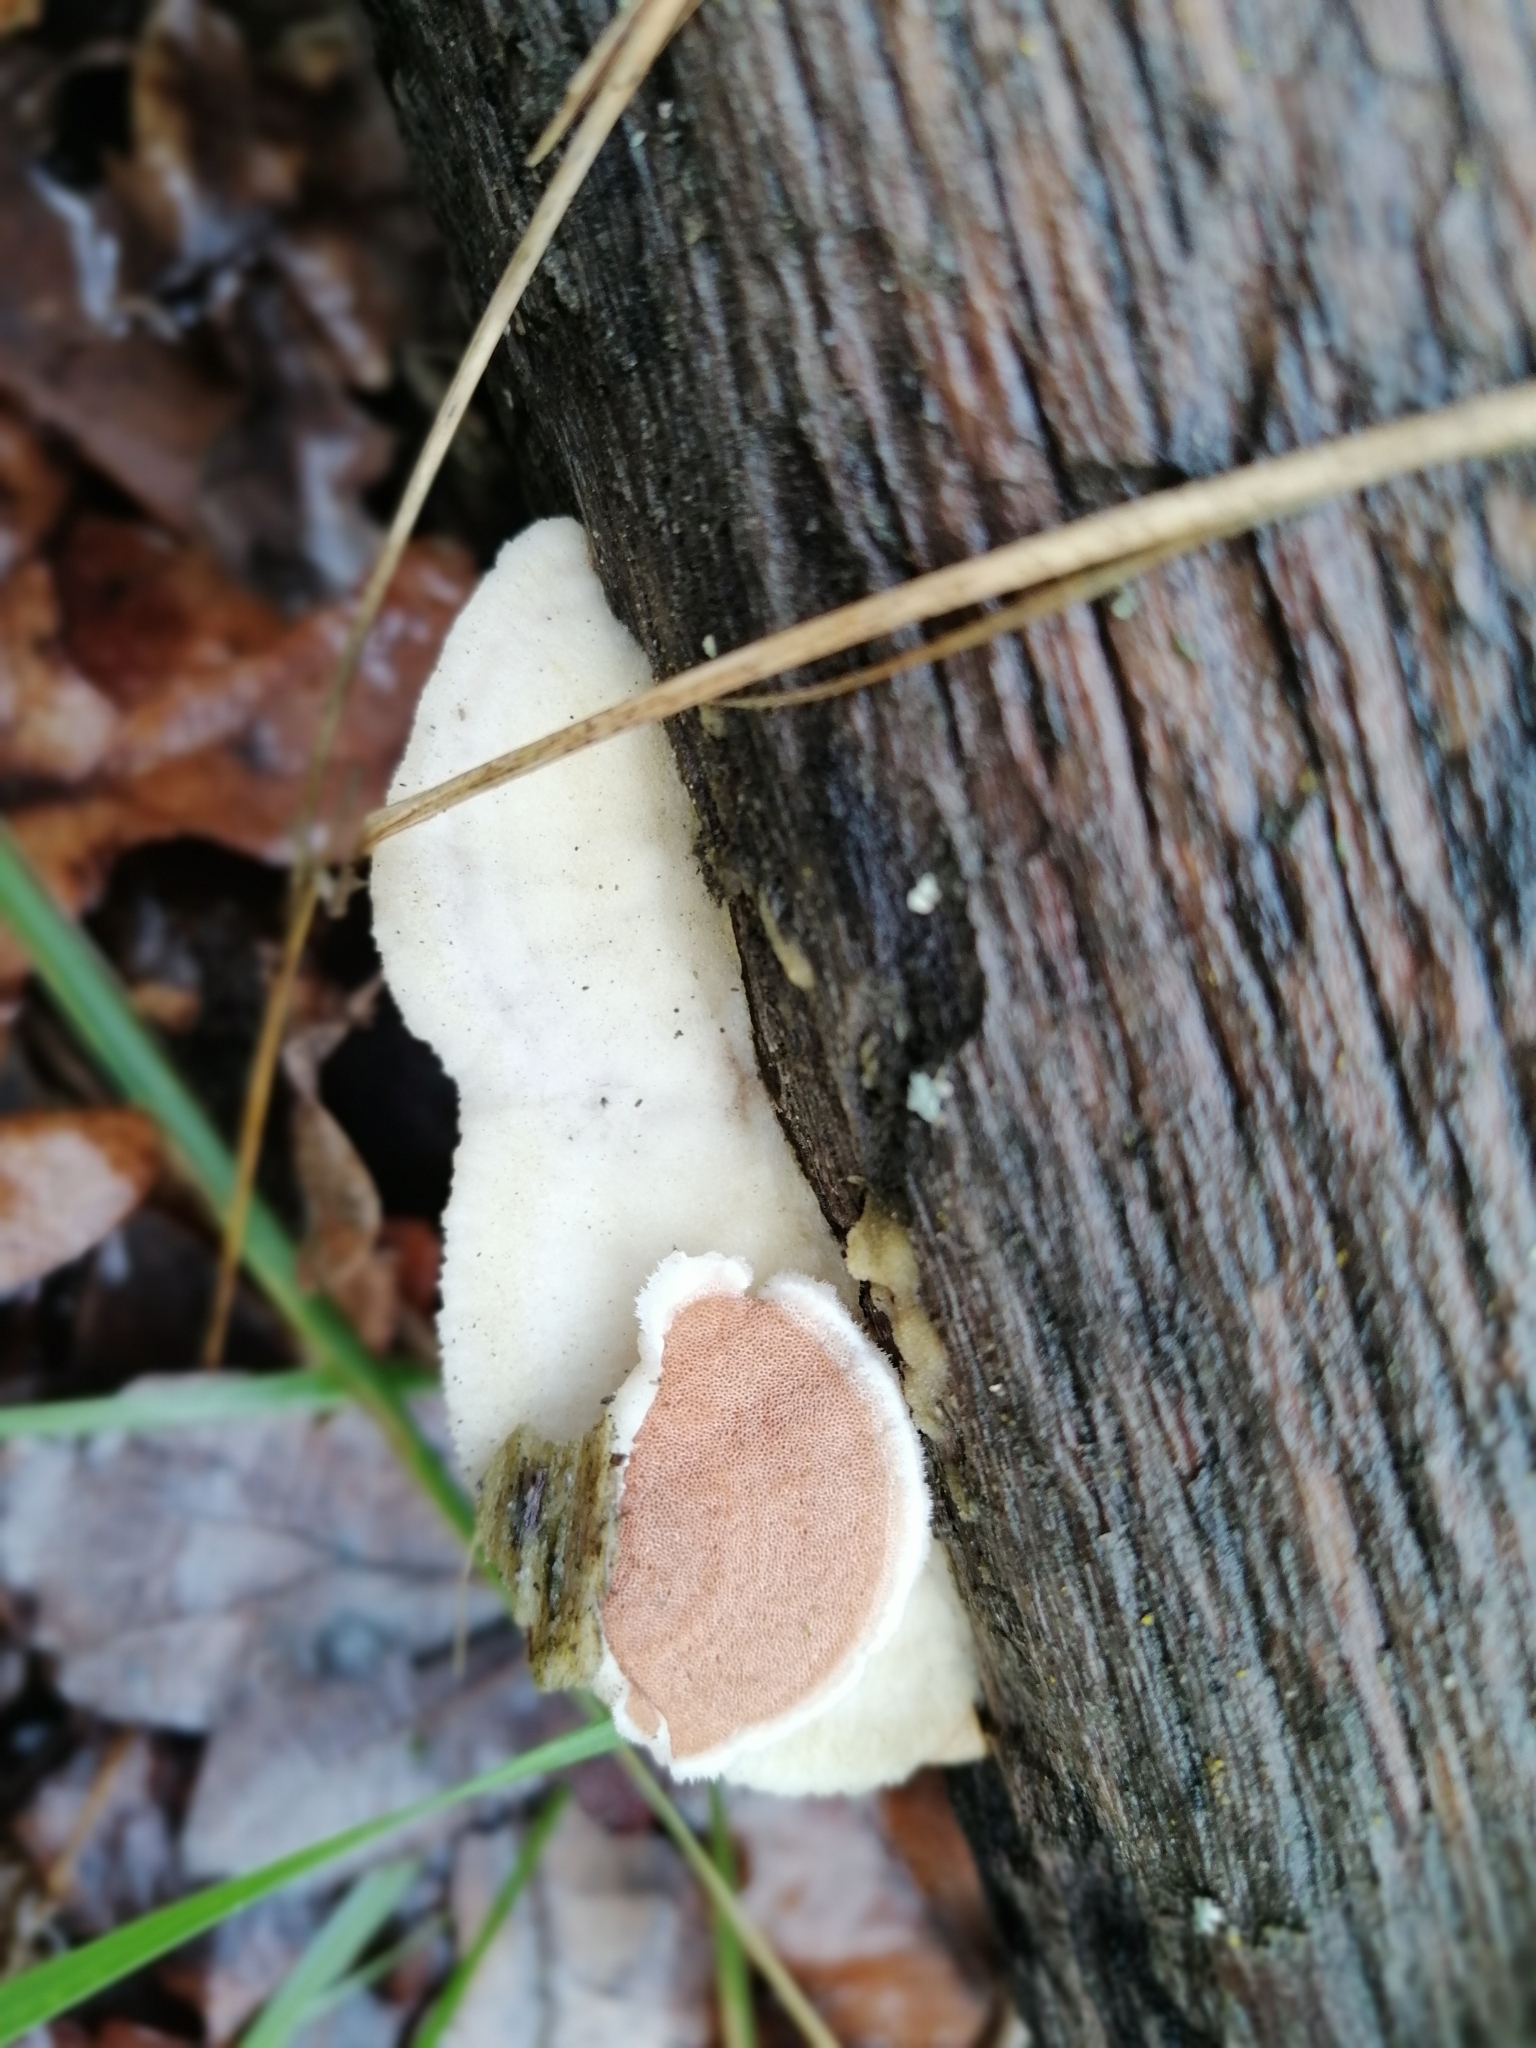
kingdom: Fungi
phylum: Basidiomycota
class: Agaricomycetes
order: Polyporales
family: Irpicaceae
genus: Vitreoporus
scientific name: Vitreoporus dichrous
